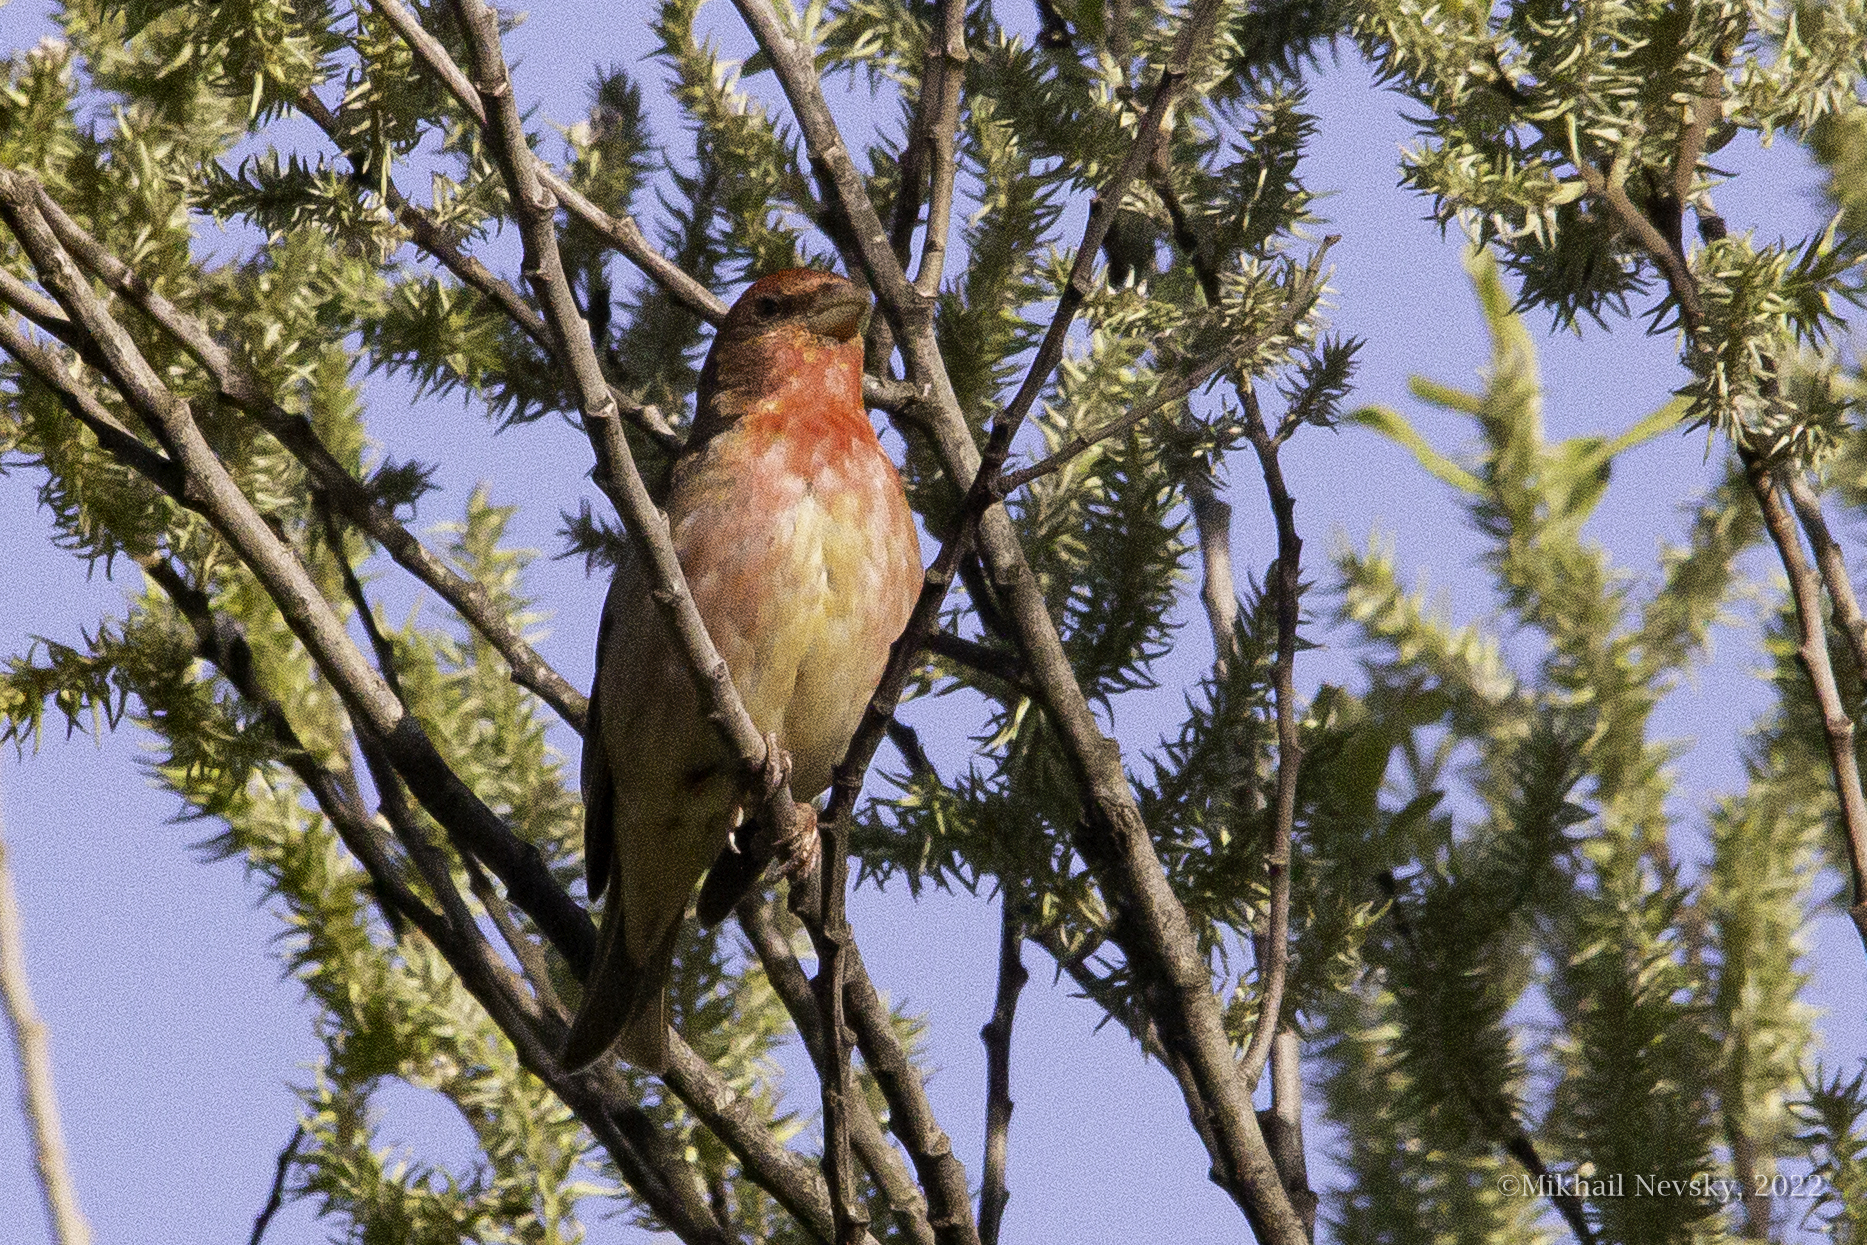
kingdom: Animalia
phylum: Chordata
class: Aves
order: Passeriformes
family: Fringillidae
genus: Carpodacus
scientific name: Carpodacus erythrinus
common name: Common rosefinch
